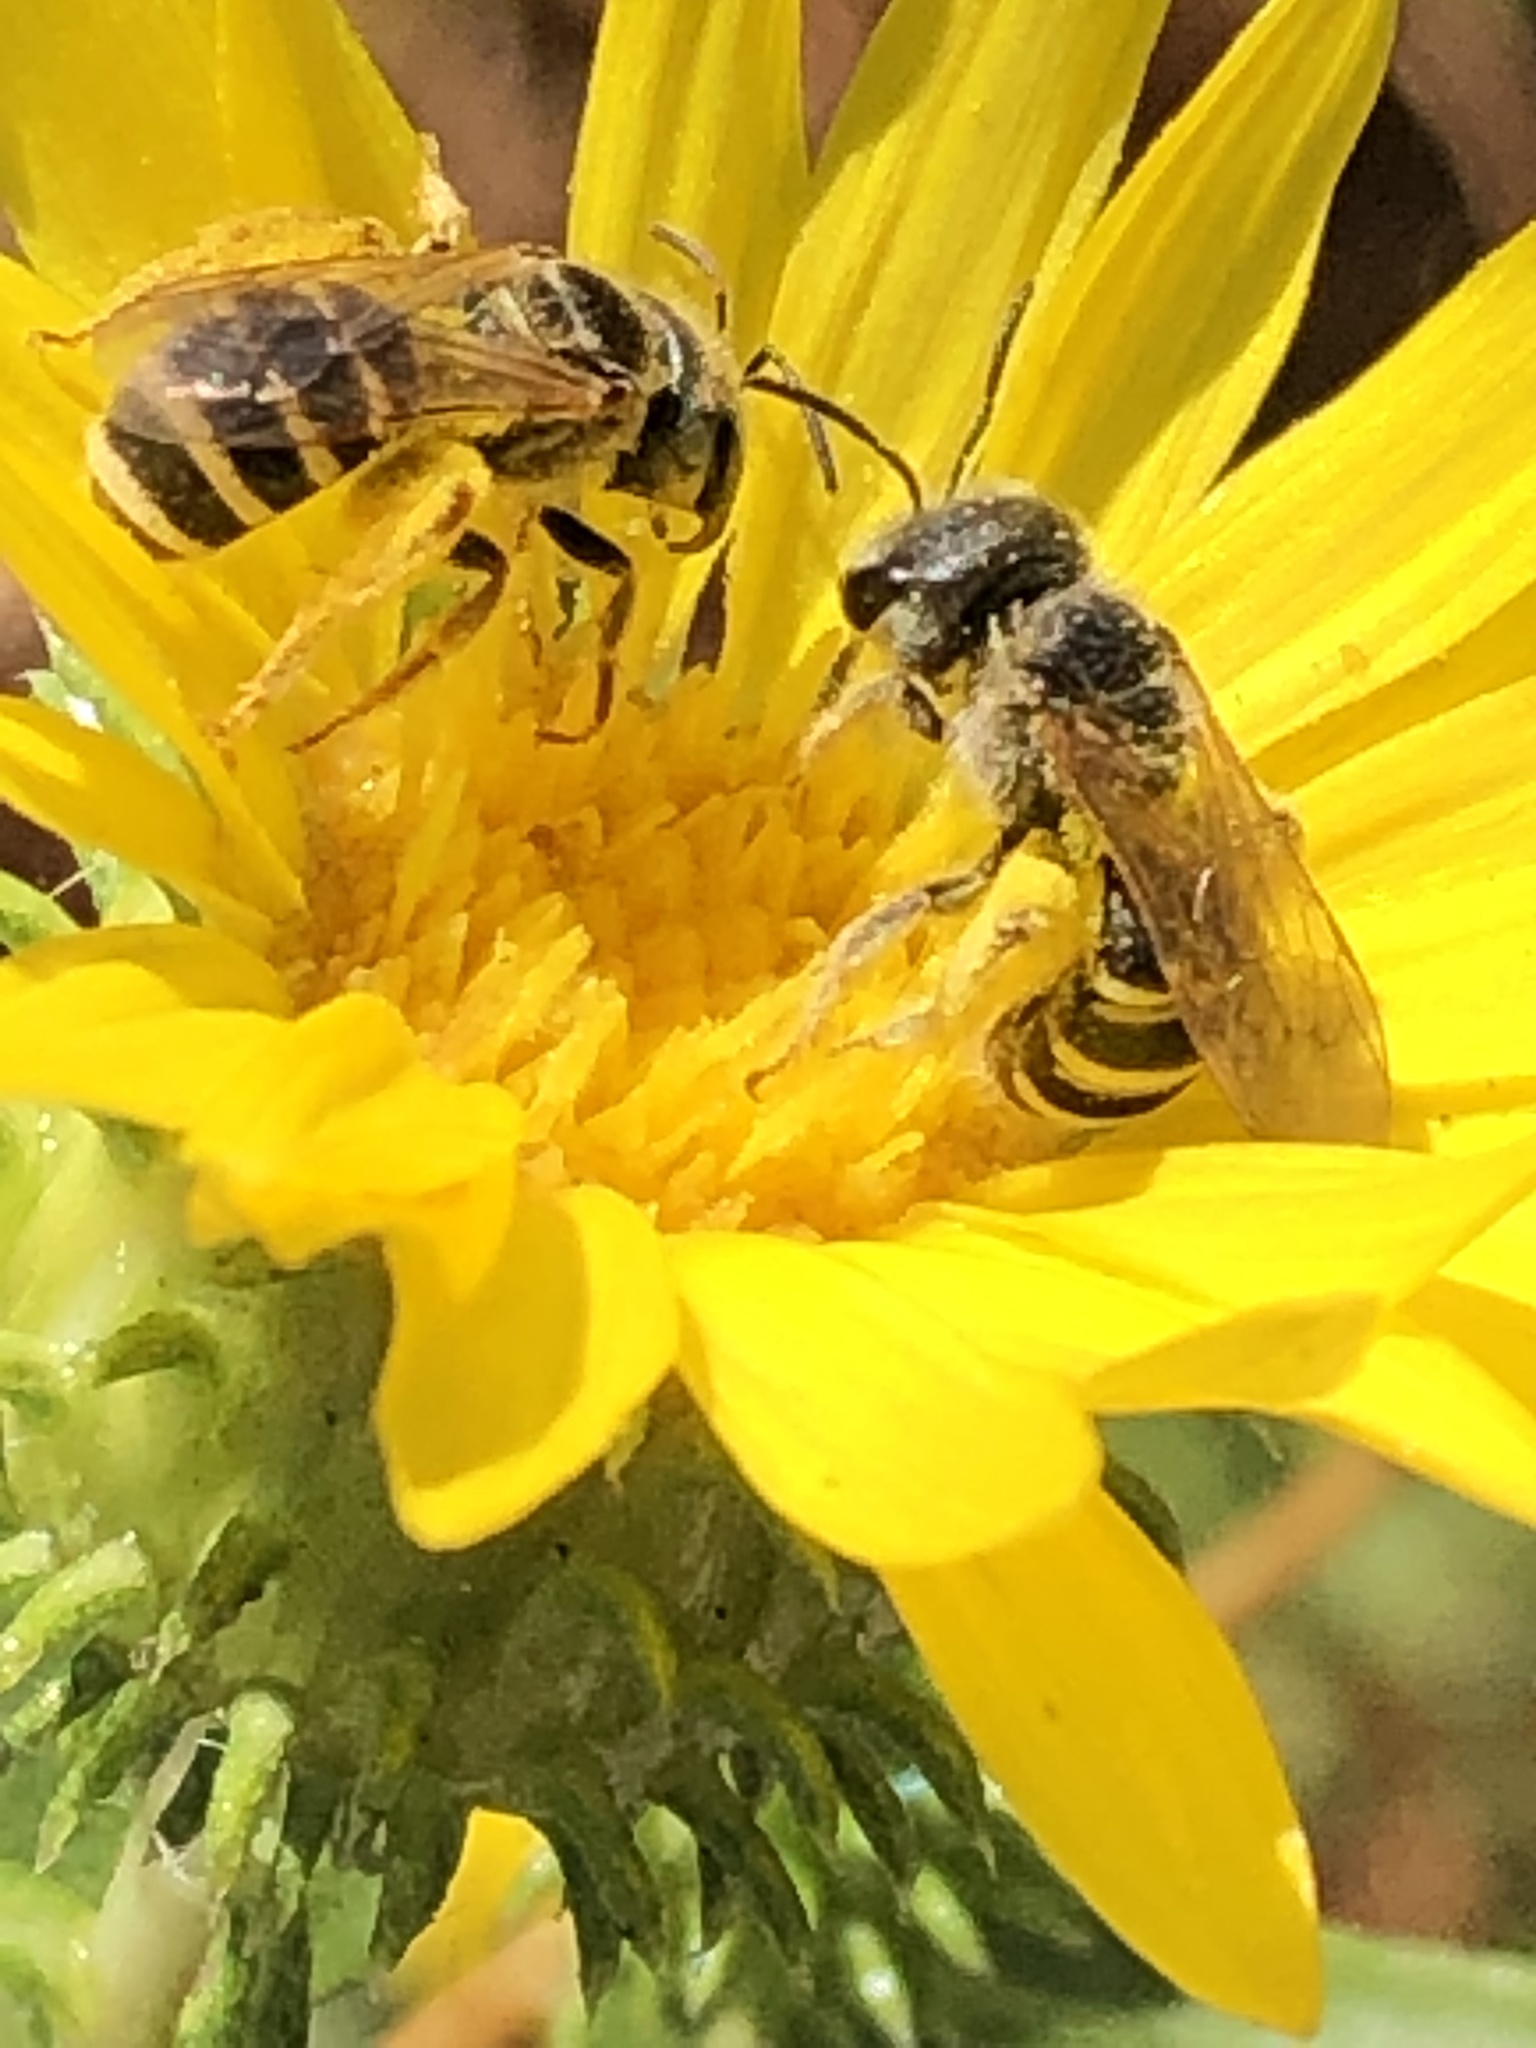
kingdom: Animalia
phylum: Arthropoda
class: Insecta
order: Hymenoptera
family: Halictidae
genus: Halictus
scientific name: Halictus ligatus
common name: Ligated furrow bee
